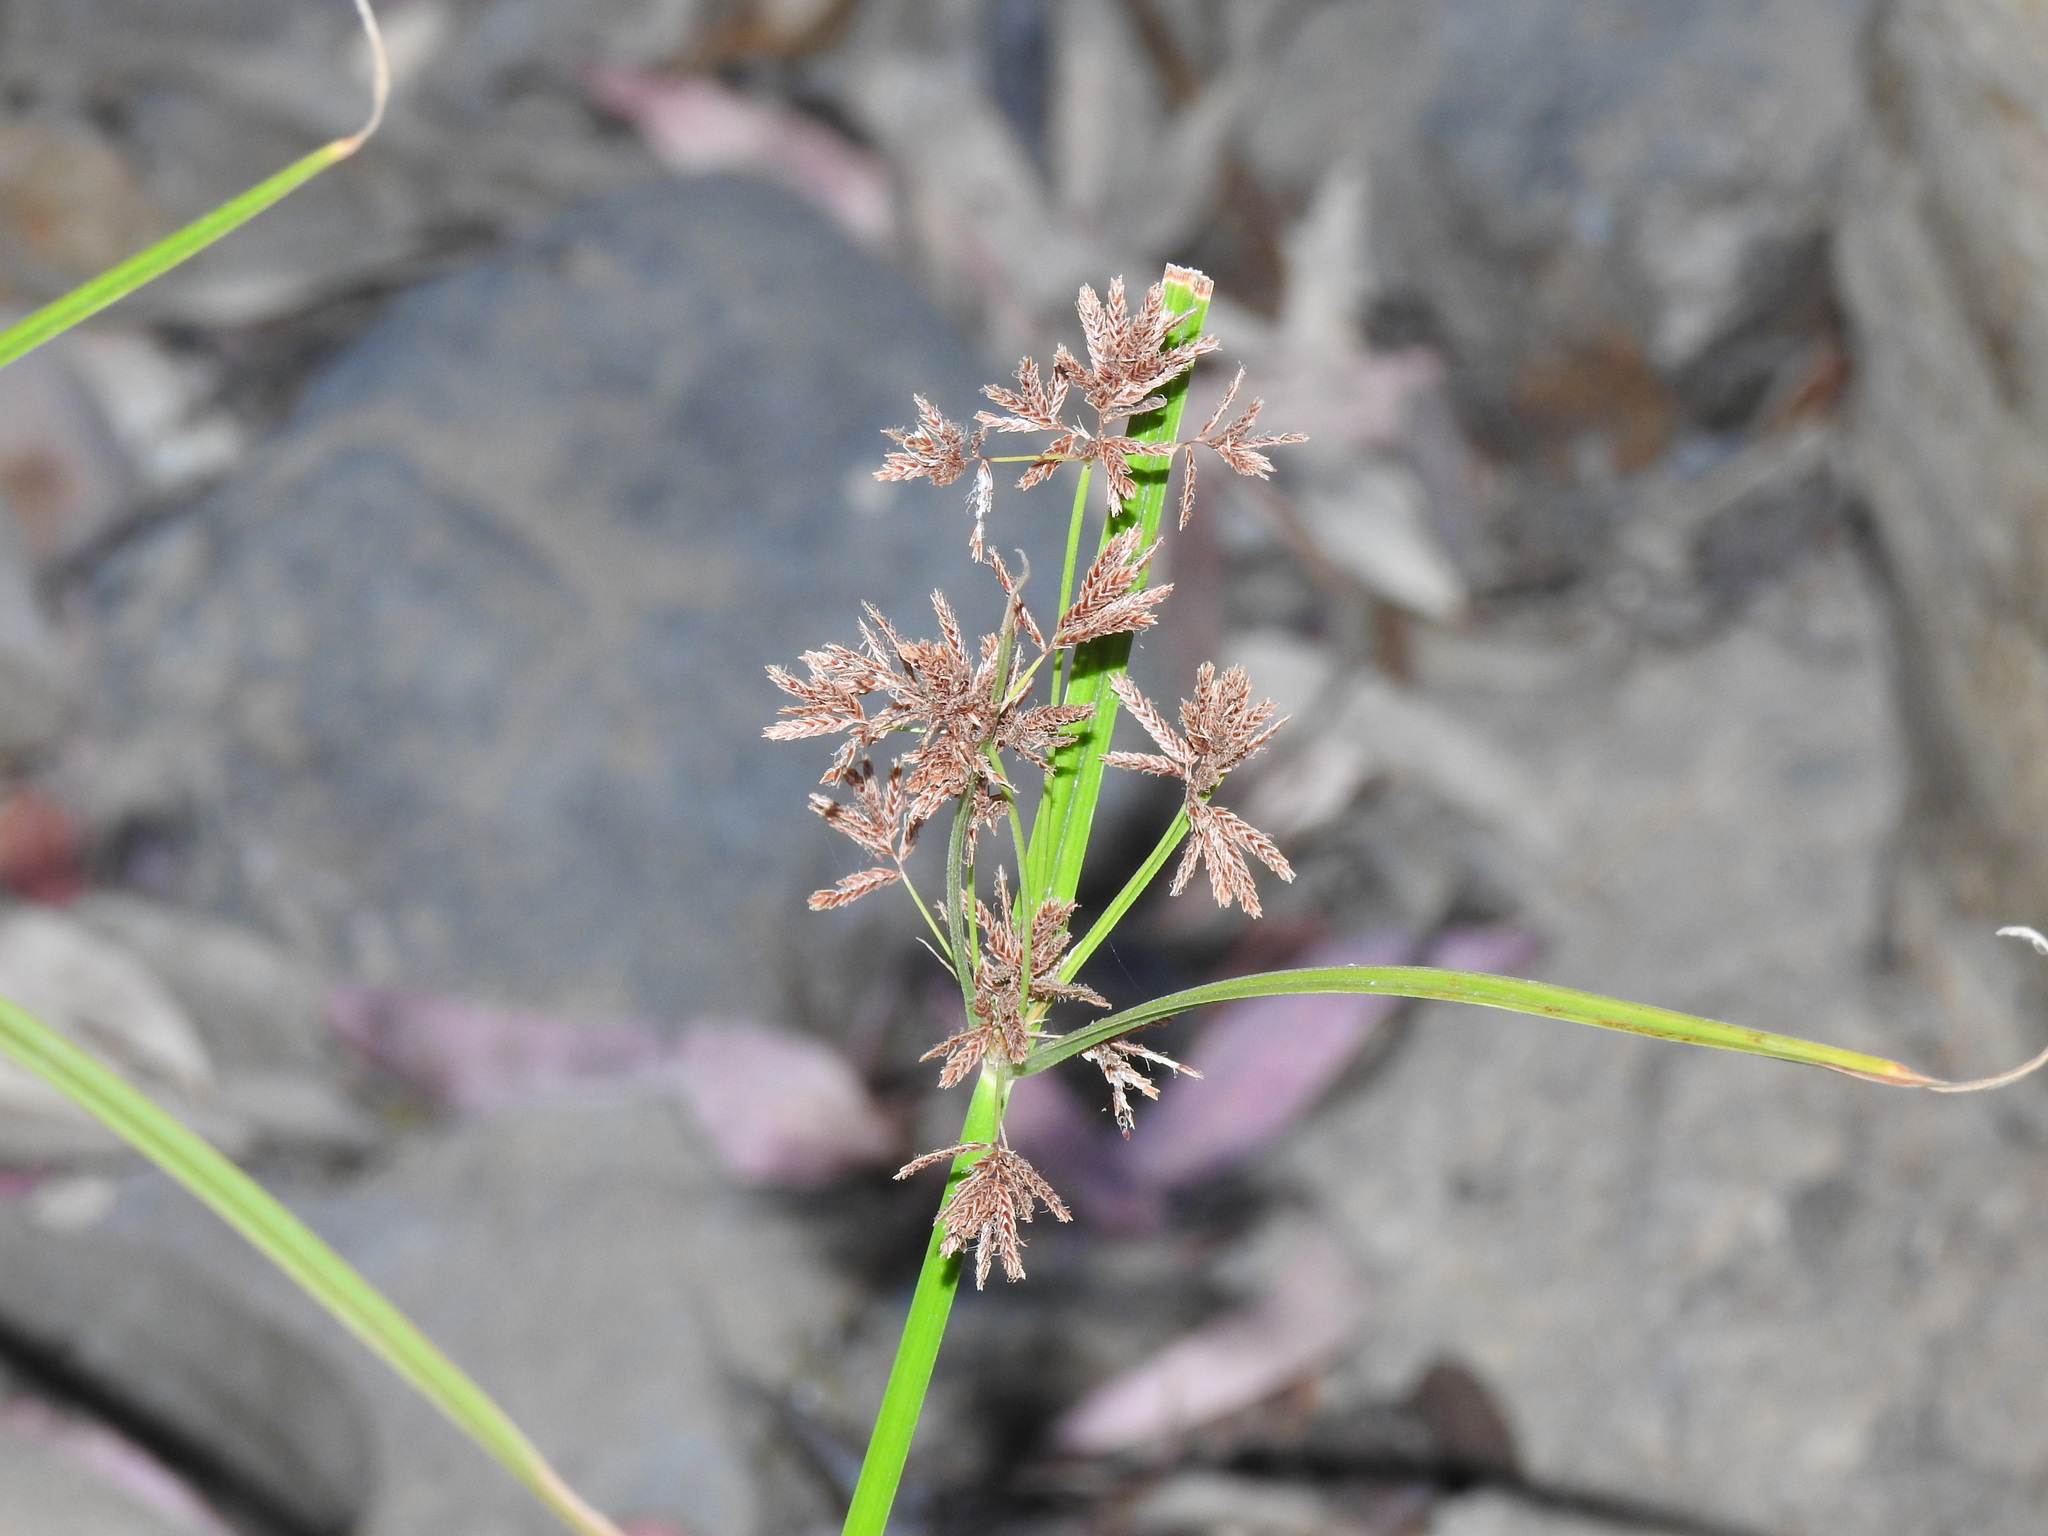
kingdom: Plantae
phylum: Tracheophyta
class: Liliopsida
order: Poales
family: Cyperaceae
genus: Cyperus
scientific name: Cyperus longus
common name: Galingale
